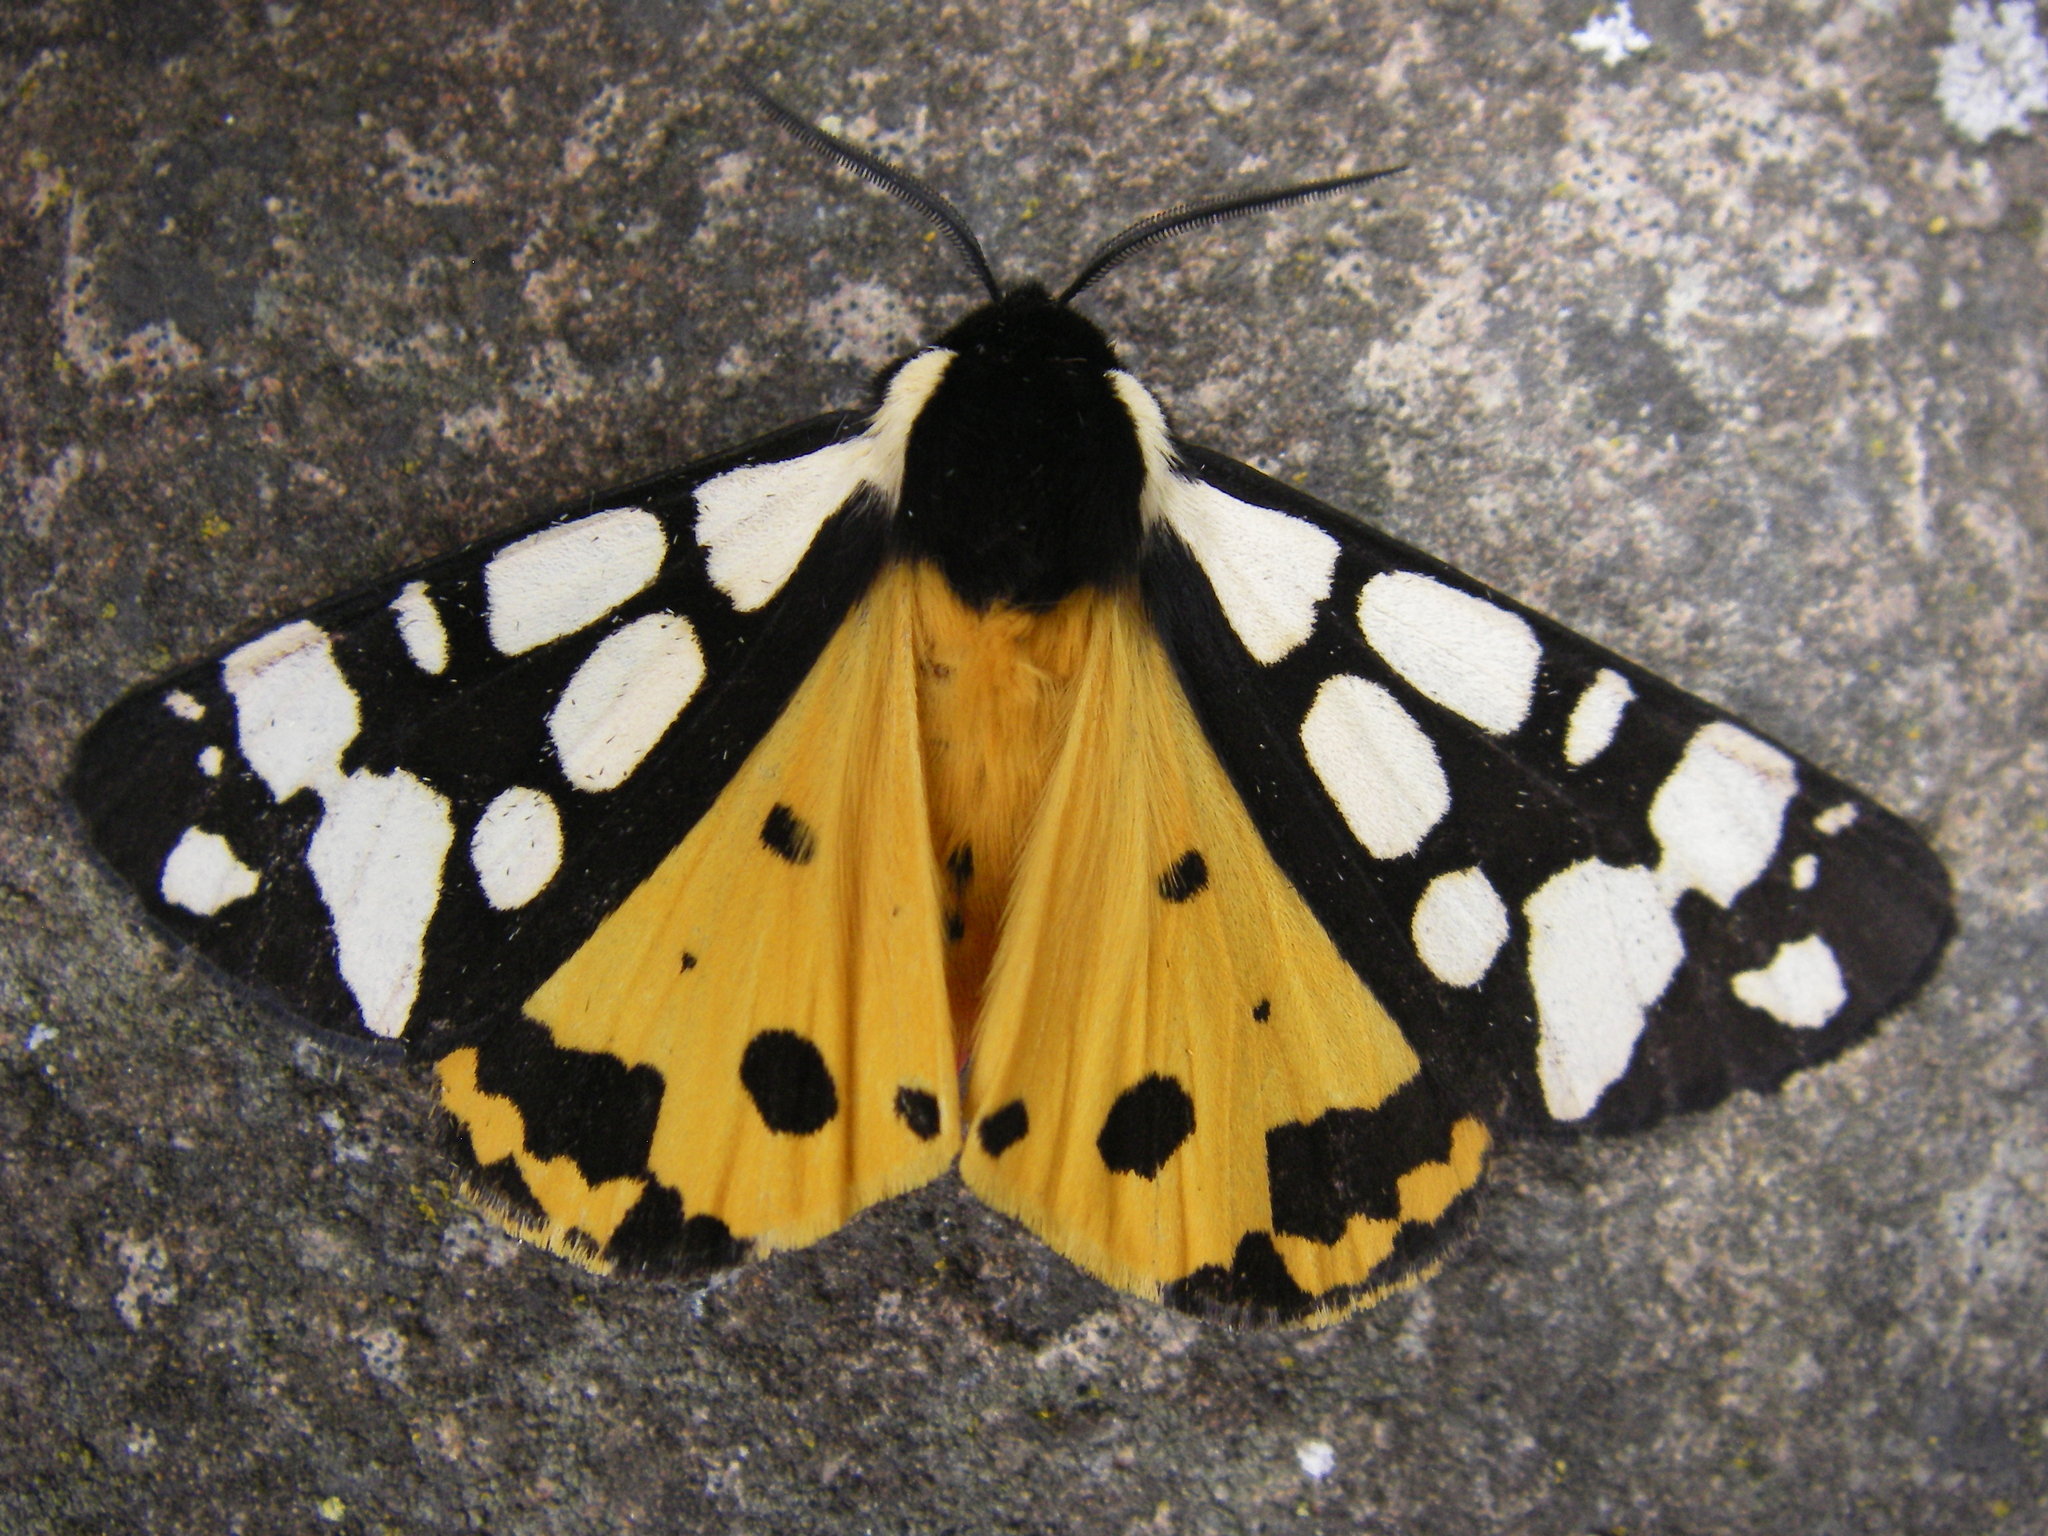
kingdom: Animalia
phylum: Arthropoda
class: Insecta
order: Lepidoptera
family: Erebidae
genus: Epicallia
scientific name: Epicallia villica
